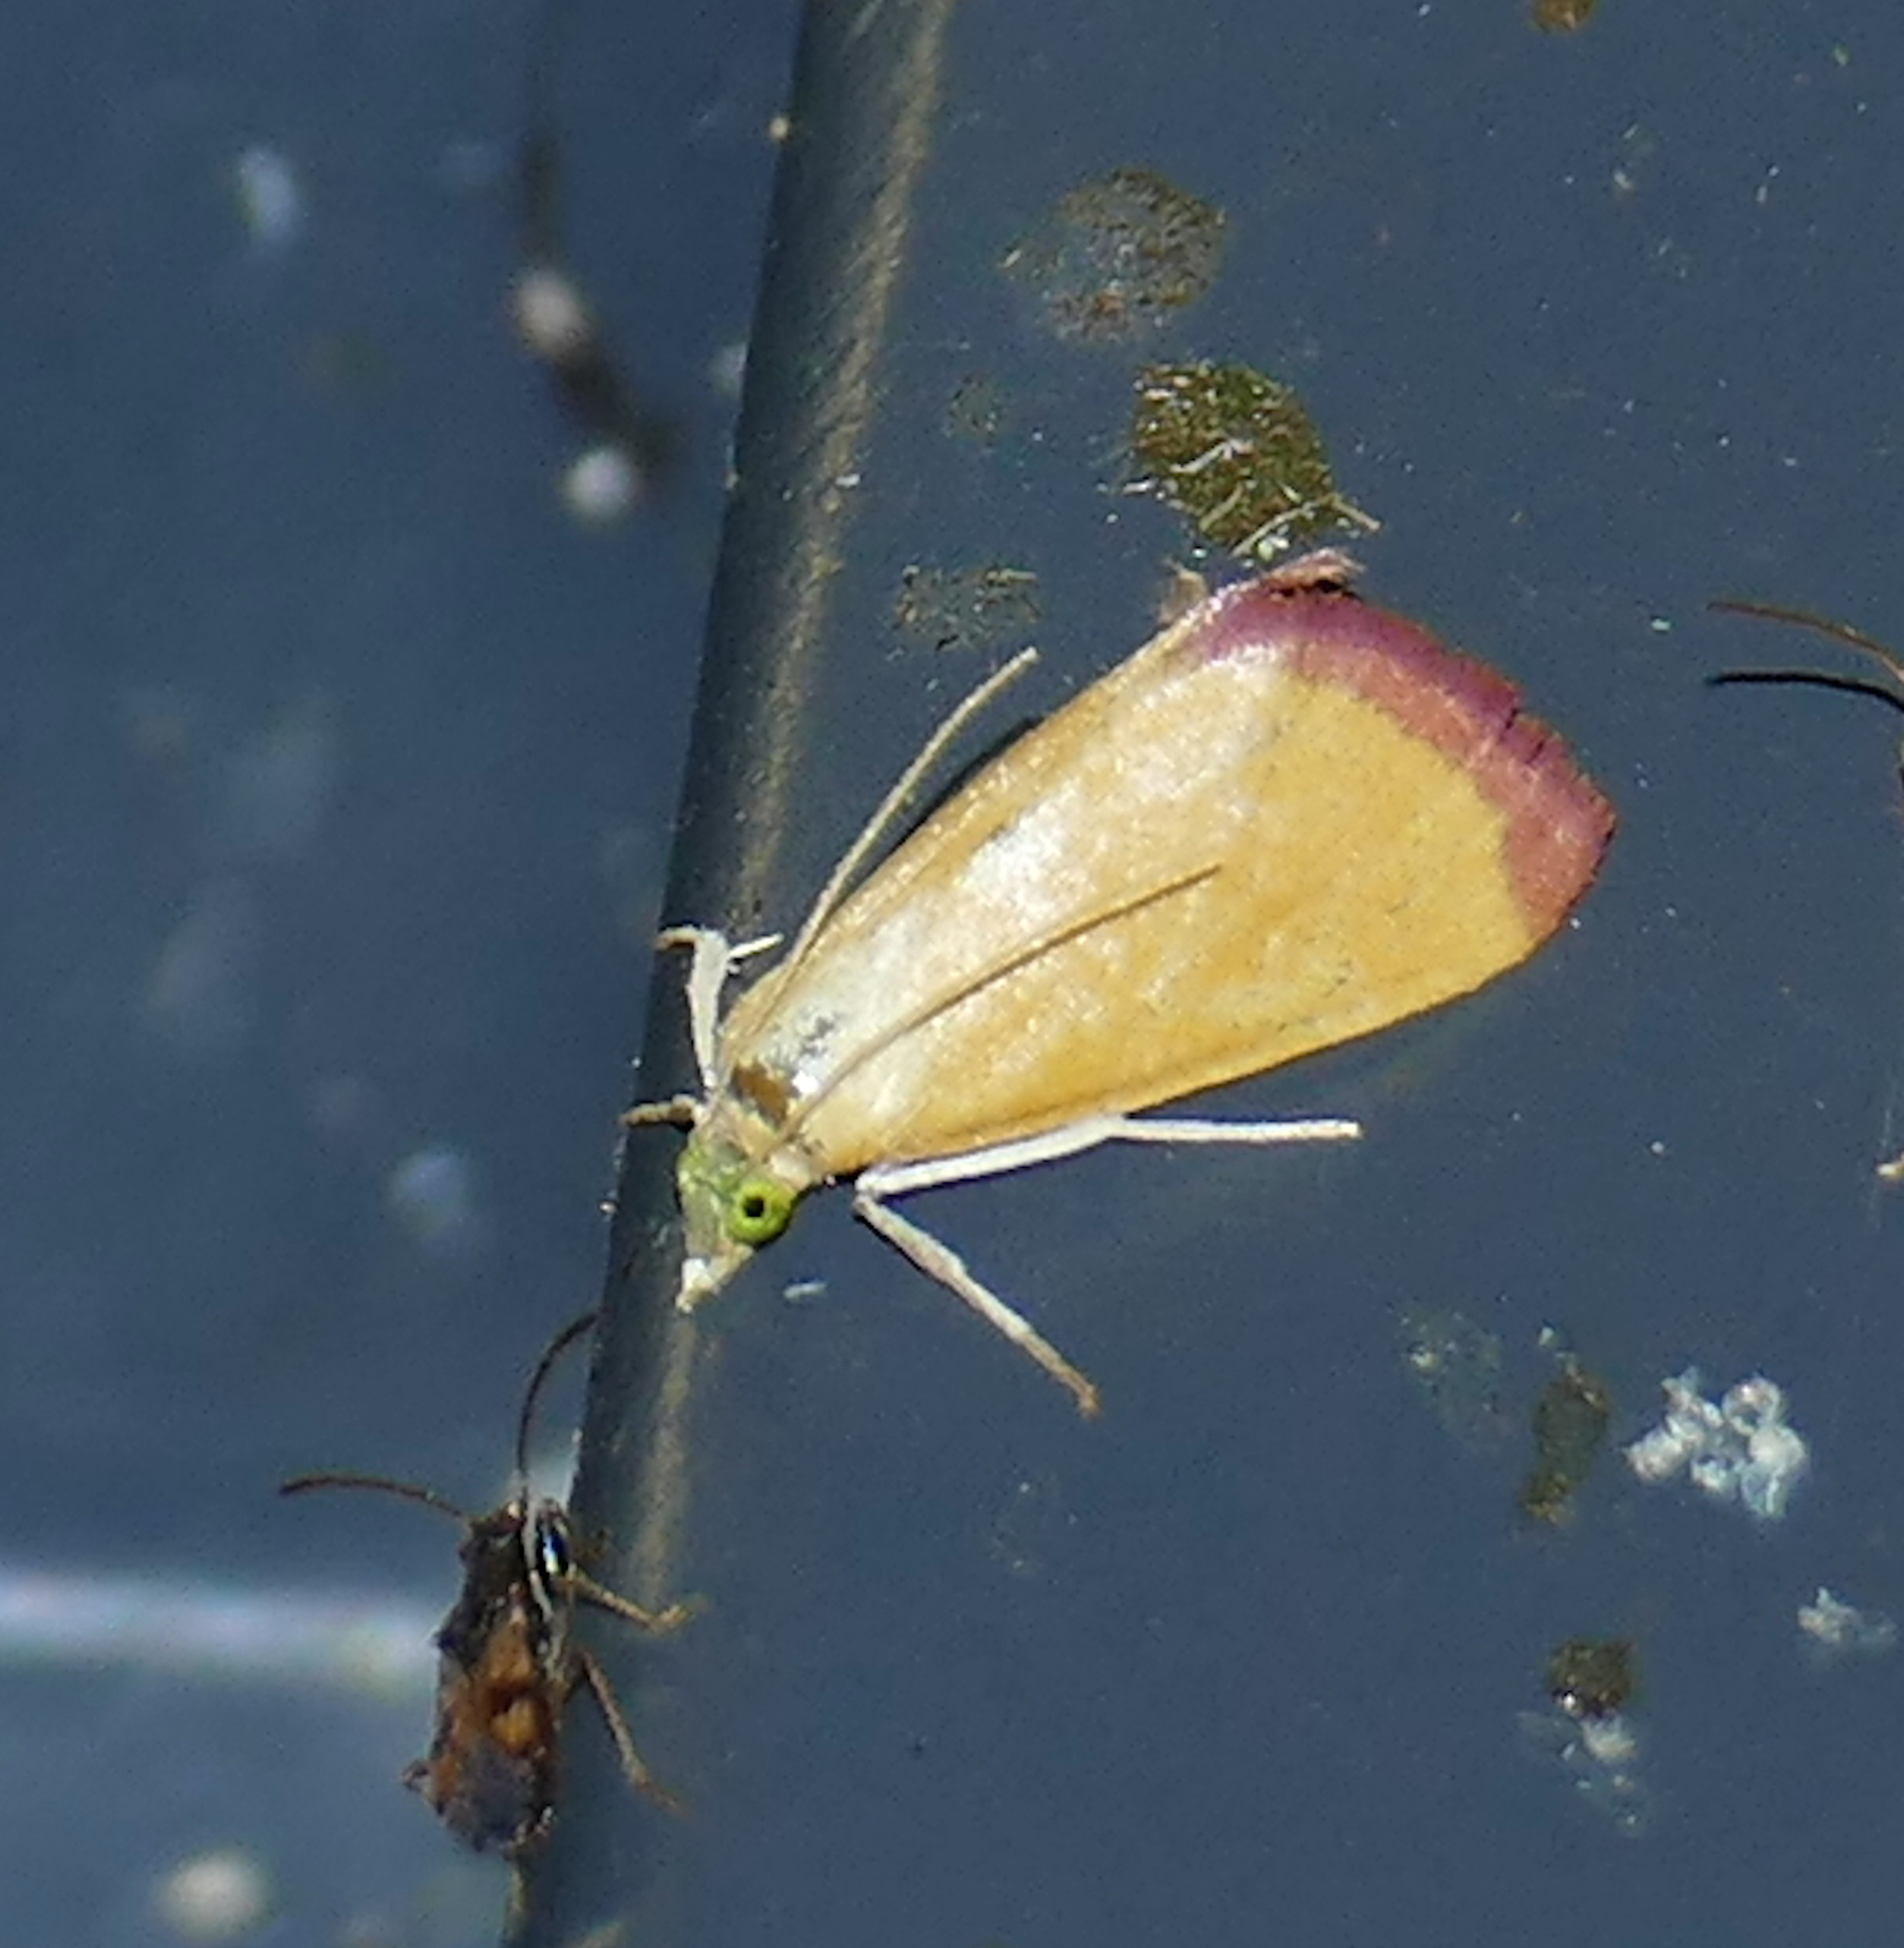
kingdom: Animalia
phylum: Arthropoda
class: Insecta
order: Lepidoptera
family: Crambidae
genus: Xanthostege
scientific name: Xanthostege plana
